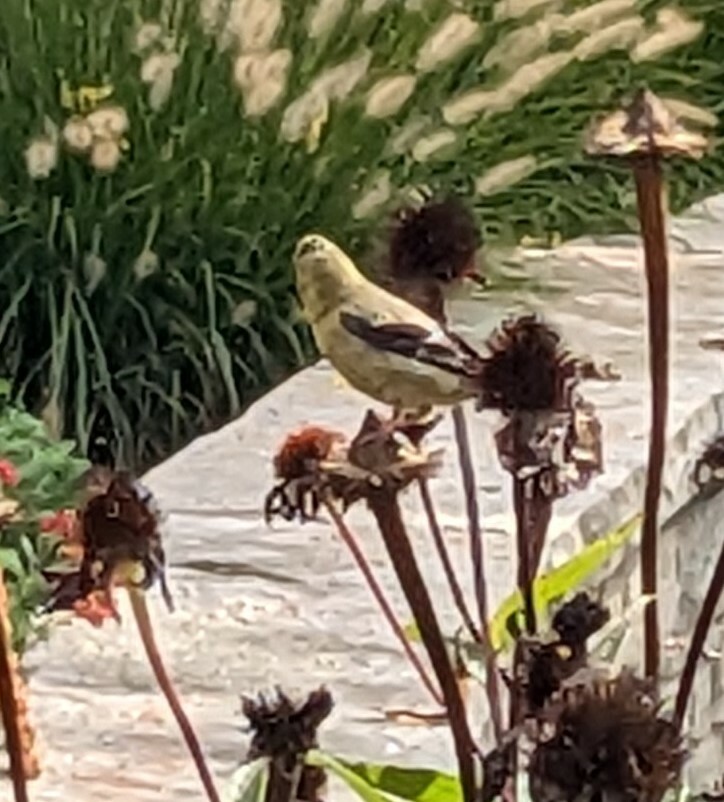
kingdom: Animalia
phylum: Chordata
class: Aves
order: Passeriformes
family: Fringillidae
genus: Spinus
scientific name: Spinus tristis
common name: American goldfinch
